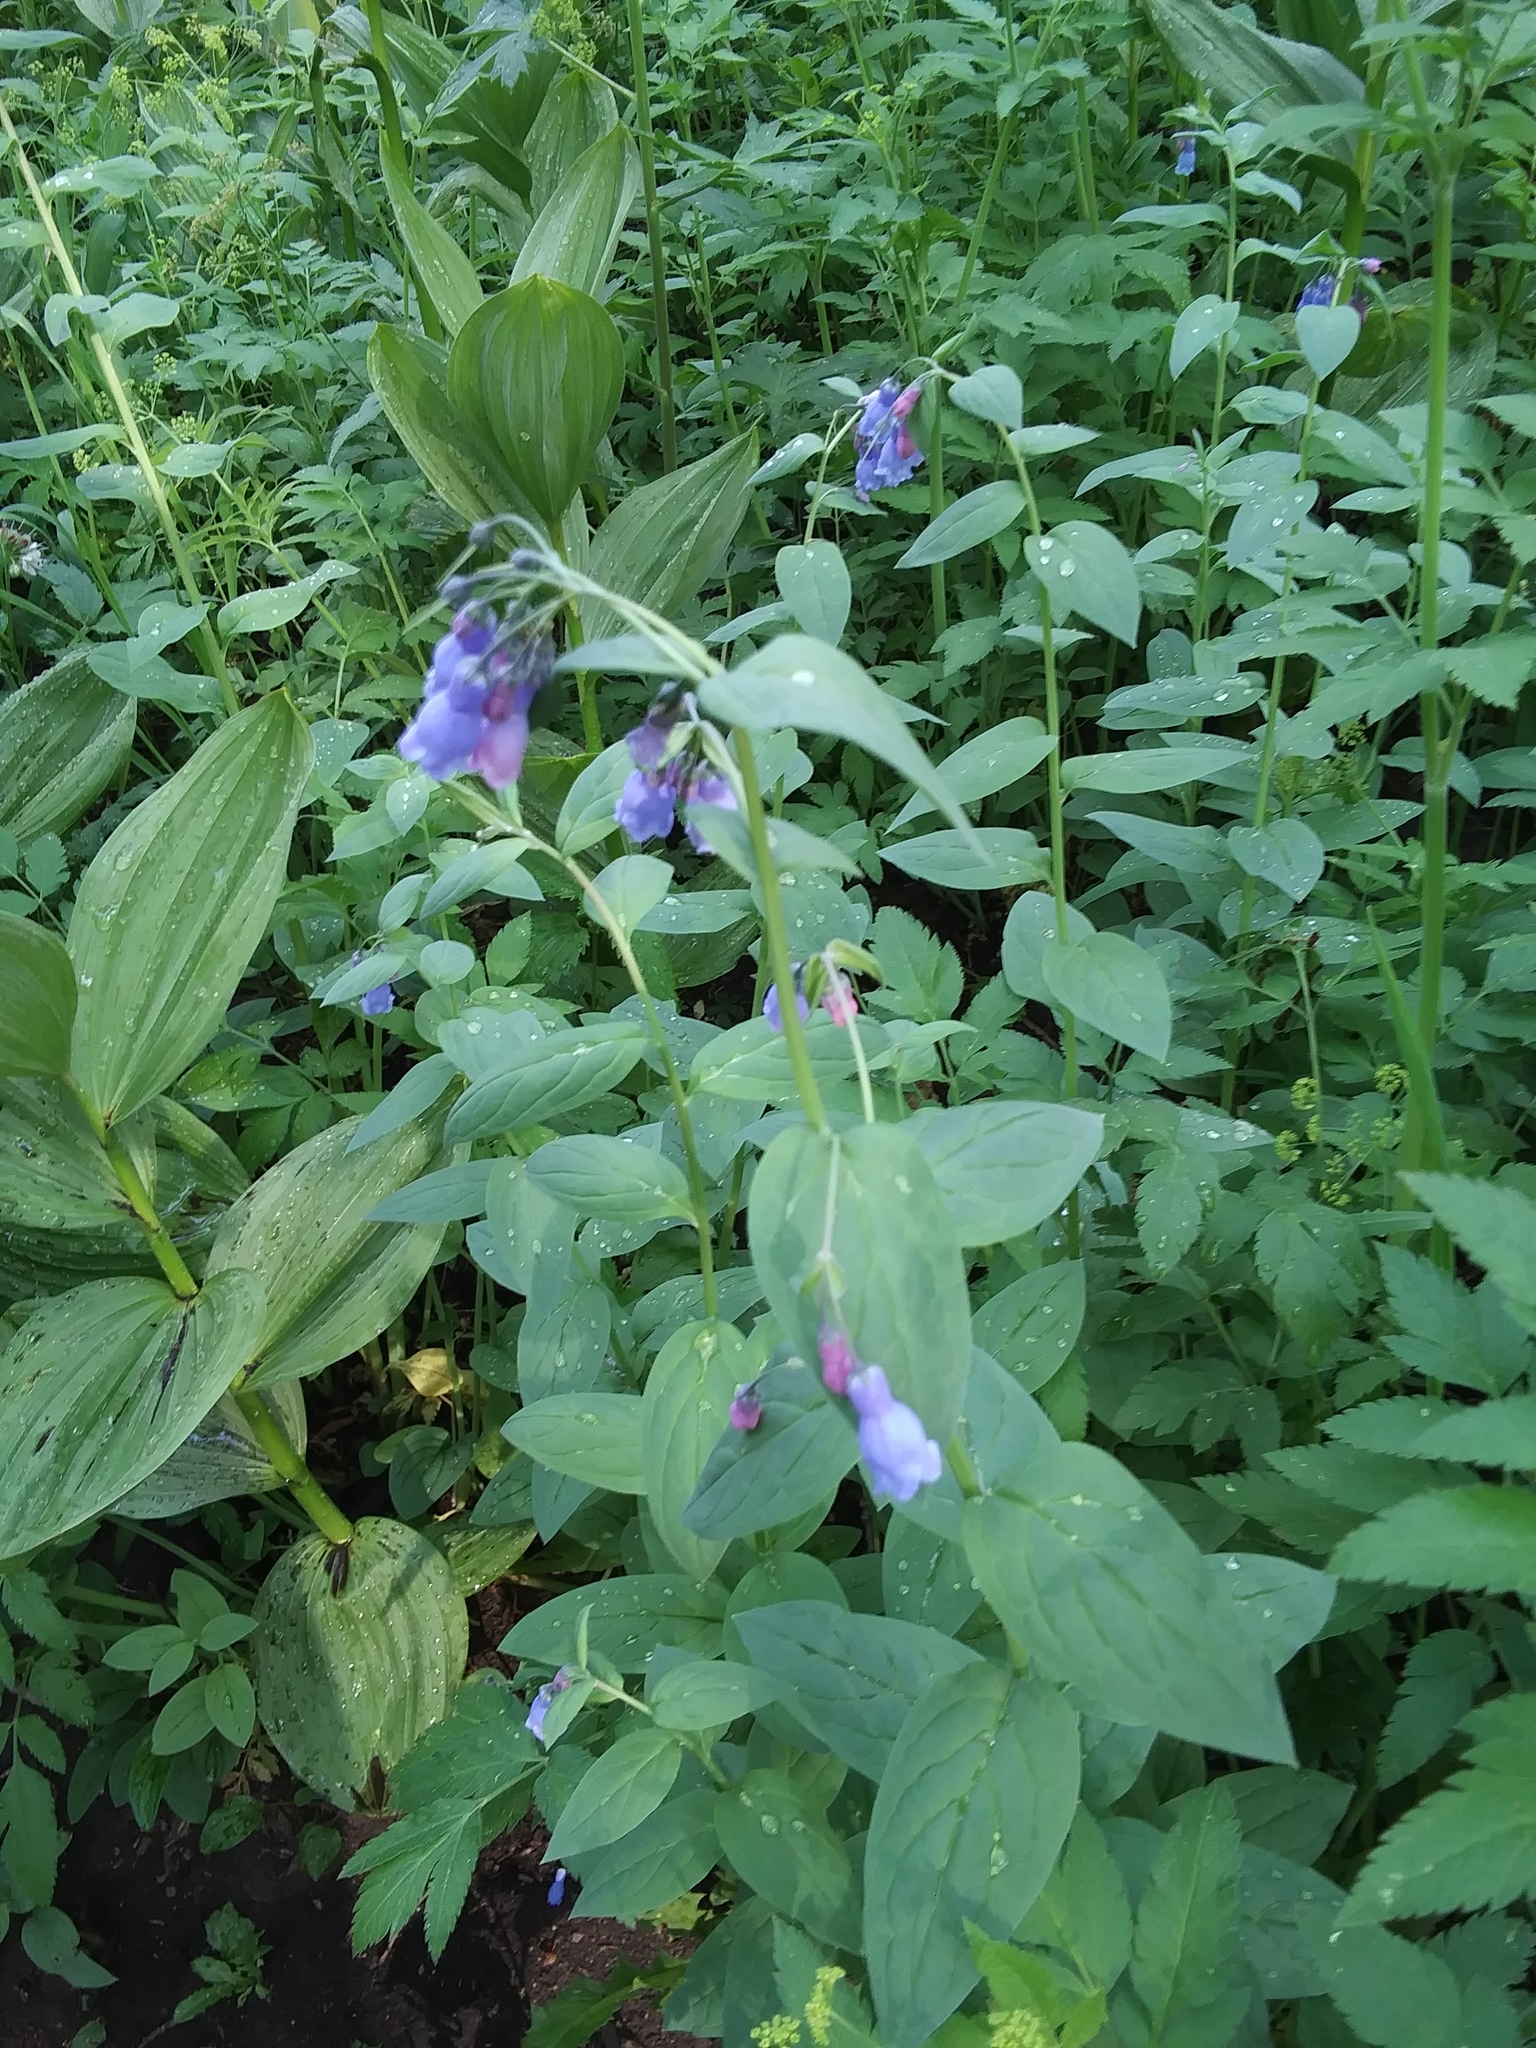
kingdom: Plantae
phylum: Tracheophyta
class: Magnoliopsida
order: Boraginales
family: Boraginaceae
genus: Mertensia
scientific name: Mertensia ciliata
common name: Tall chiming-bells
